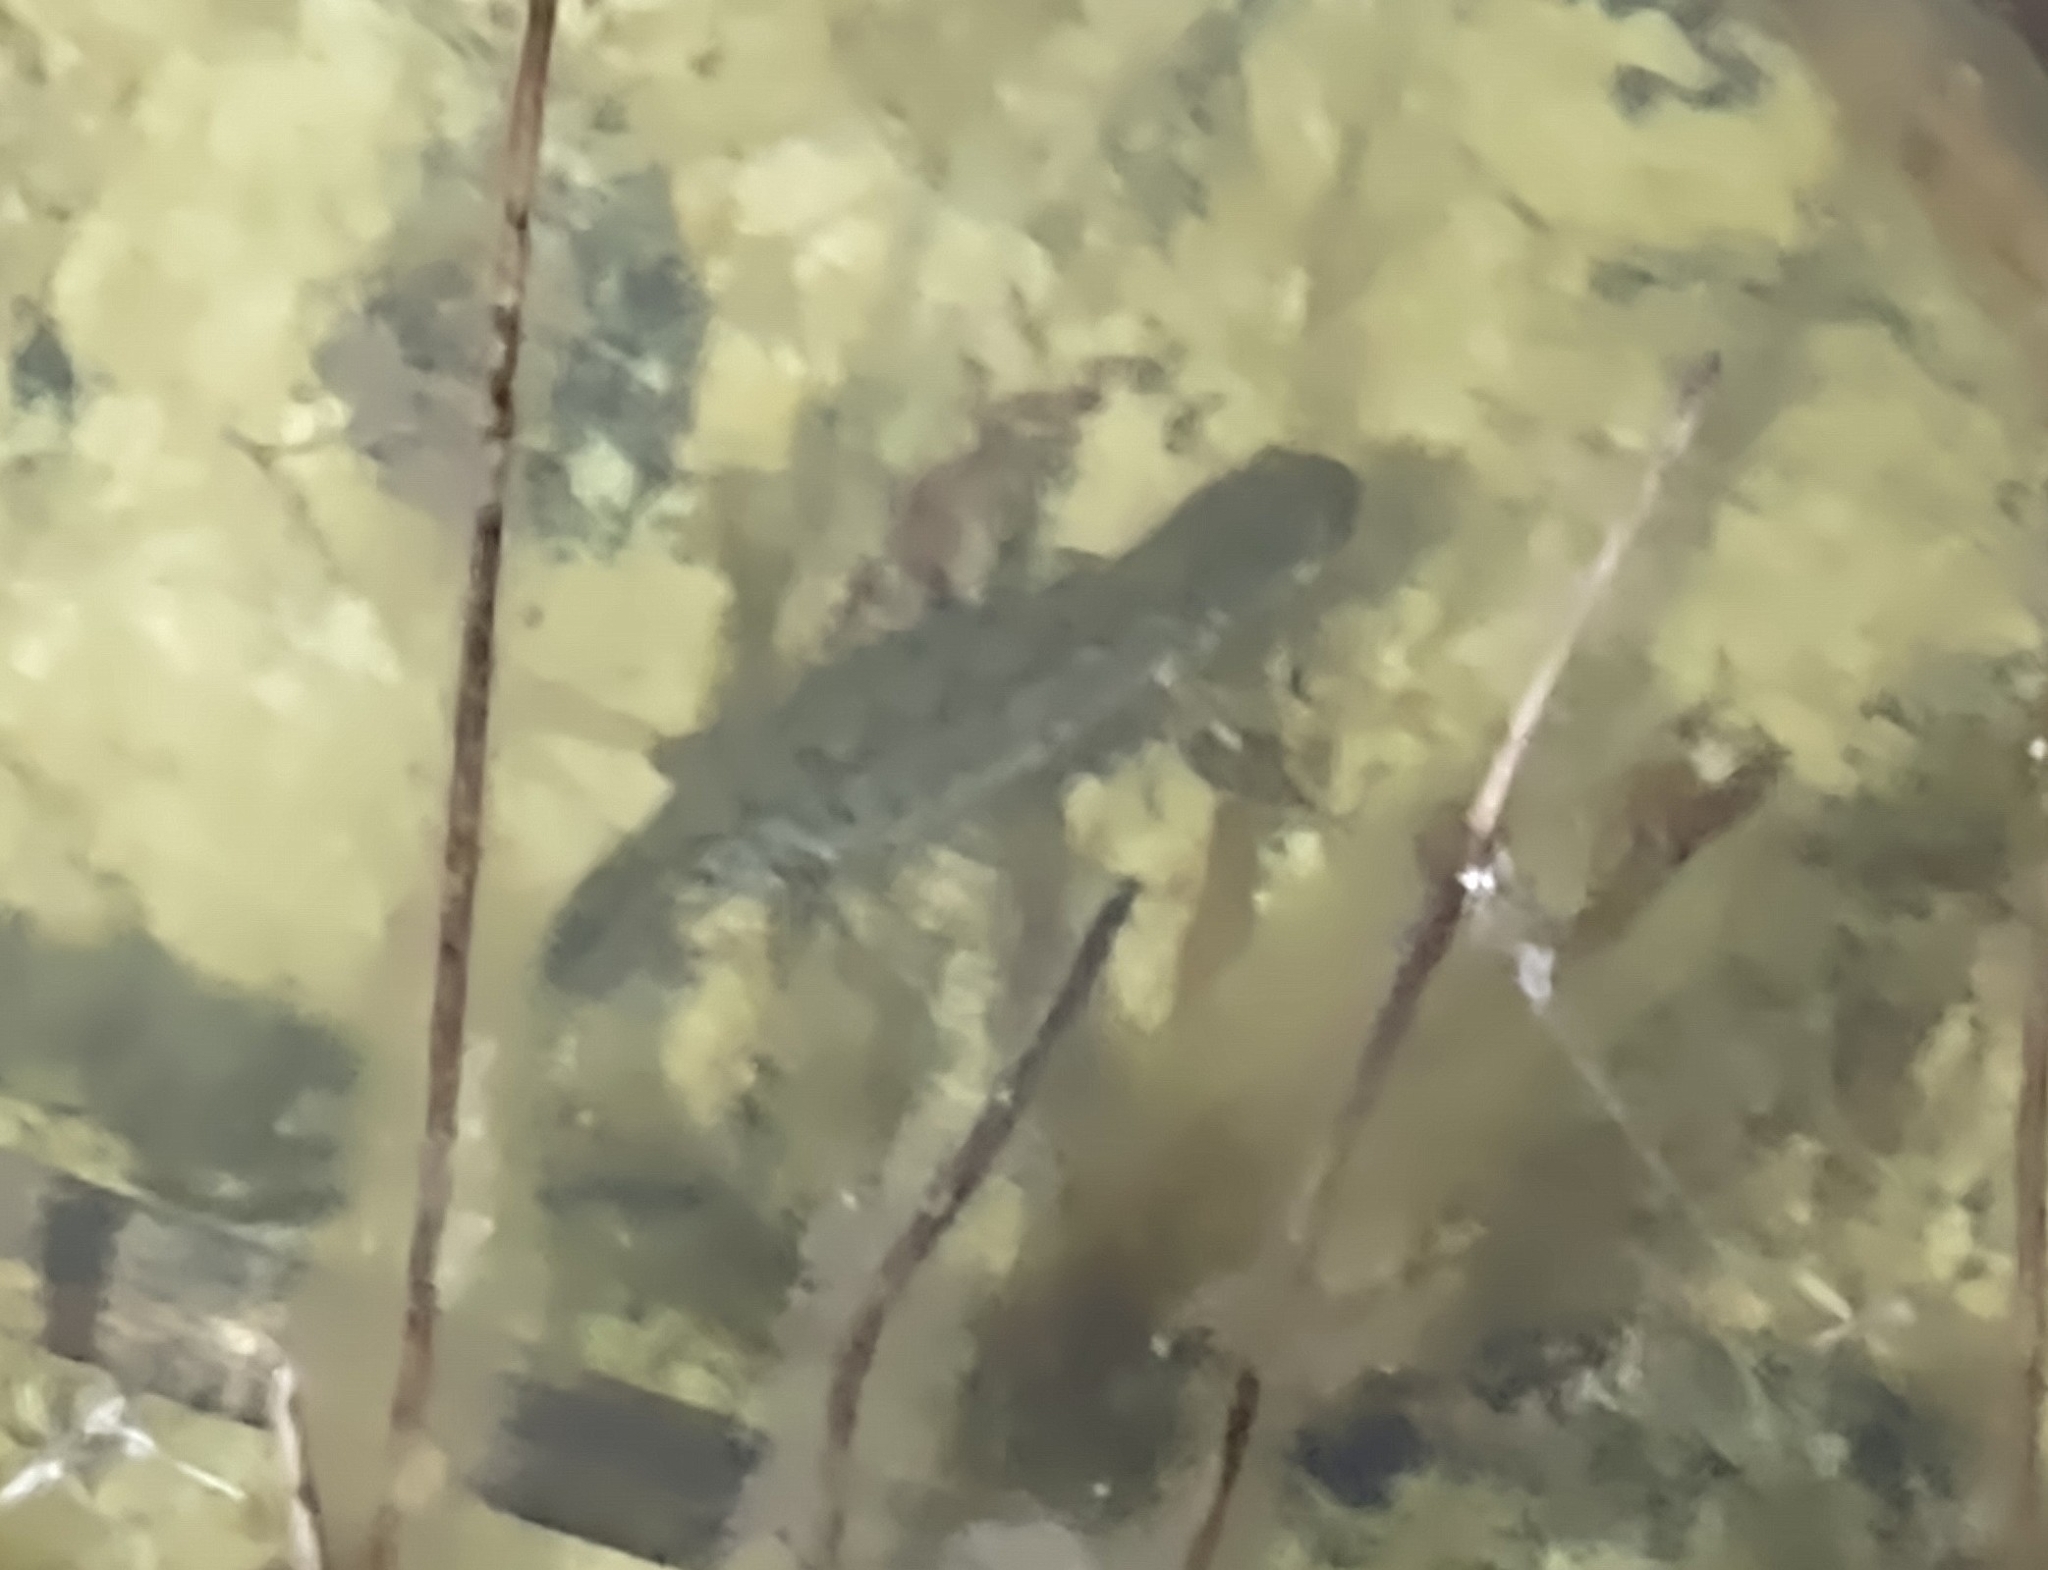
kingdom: Animalia
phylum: Chordata
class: Amphibia
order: Caudata
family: Salamandridae
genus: Ichthyosaura
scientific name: Ichthyosaura alpestris
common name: Alpine newt
